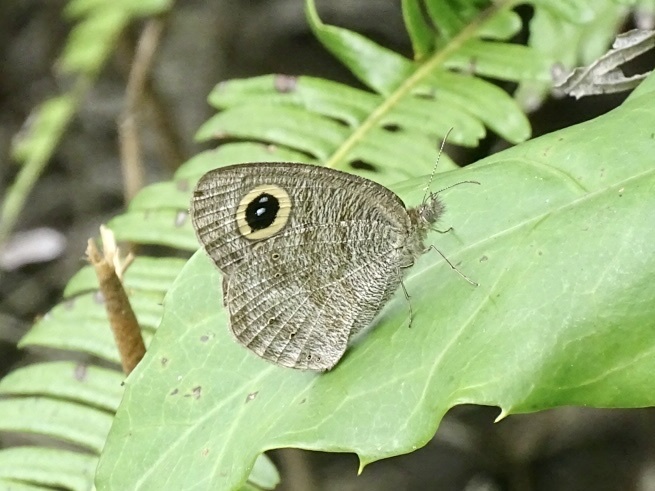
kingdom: Animalia
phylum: Arthropoda
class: Insecta
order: Lepidoptera
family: Nymphalidae
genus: Ypthima
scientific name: Ypthima baldus
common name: Common five-ring
